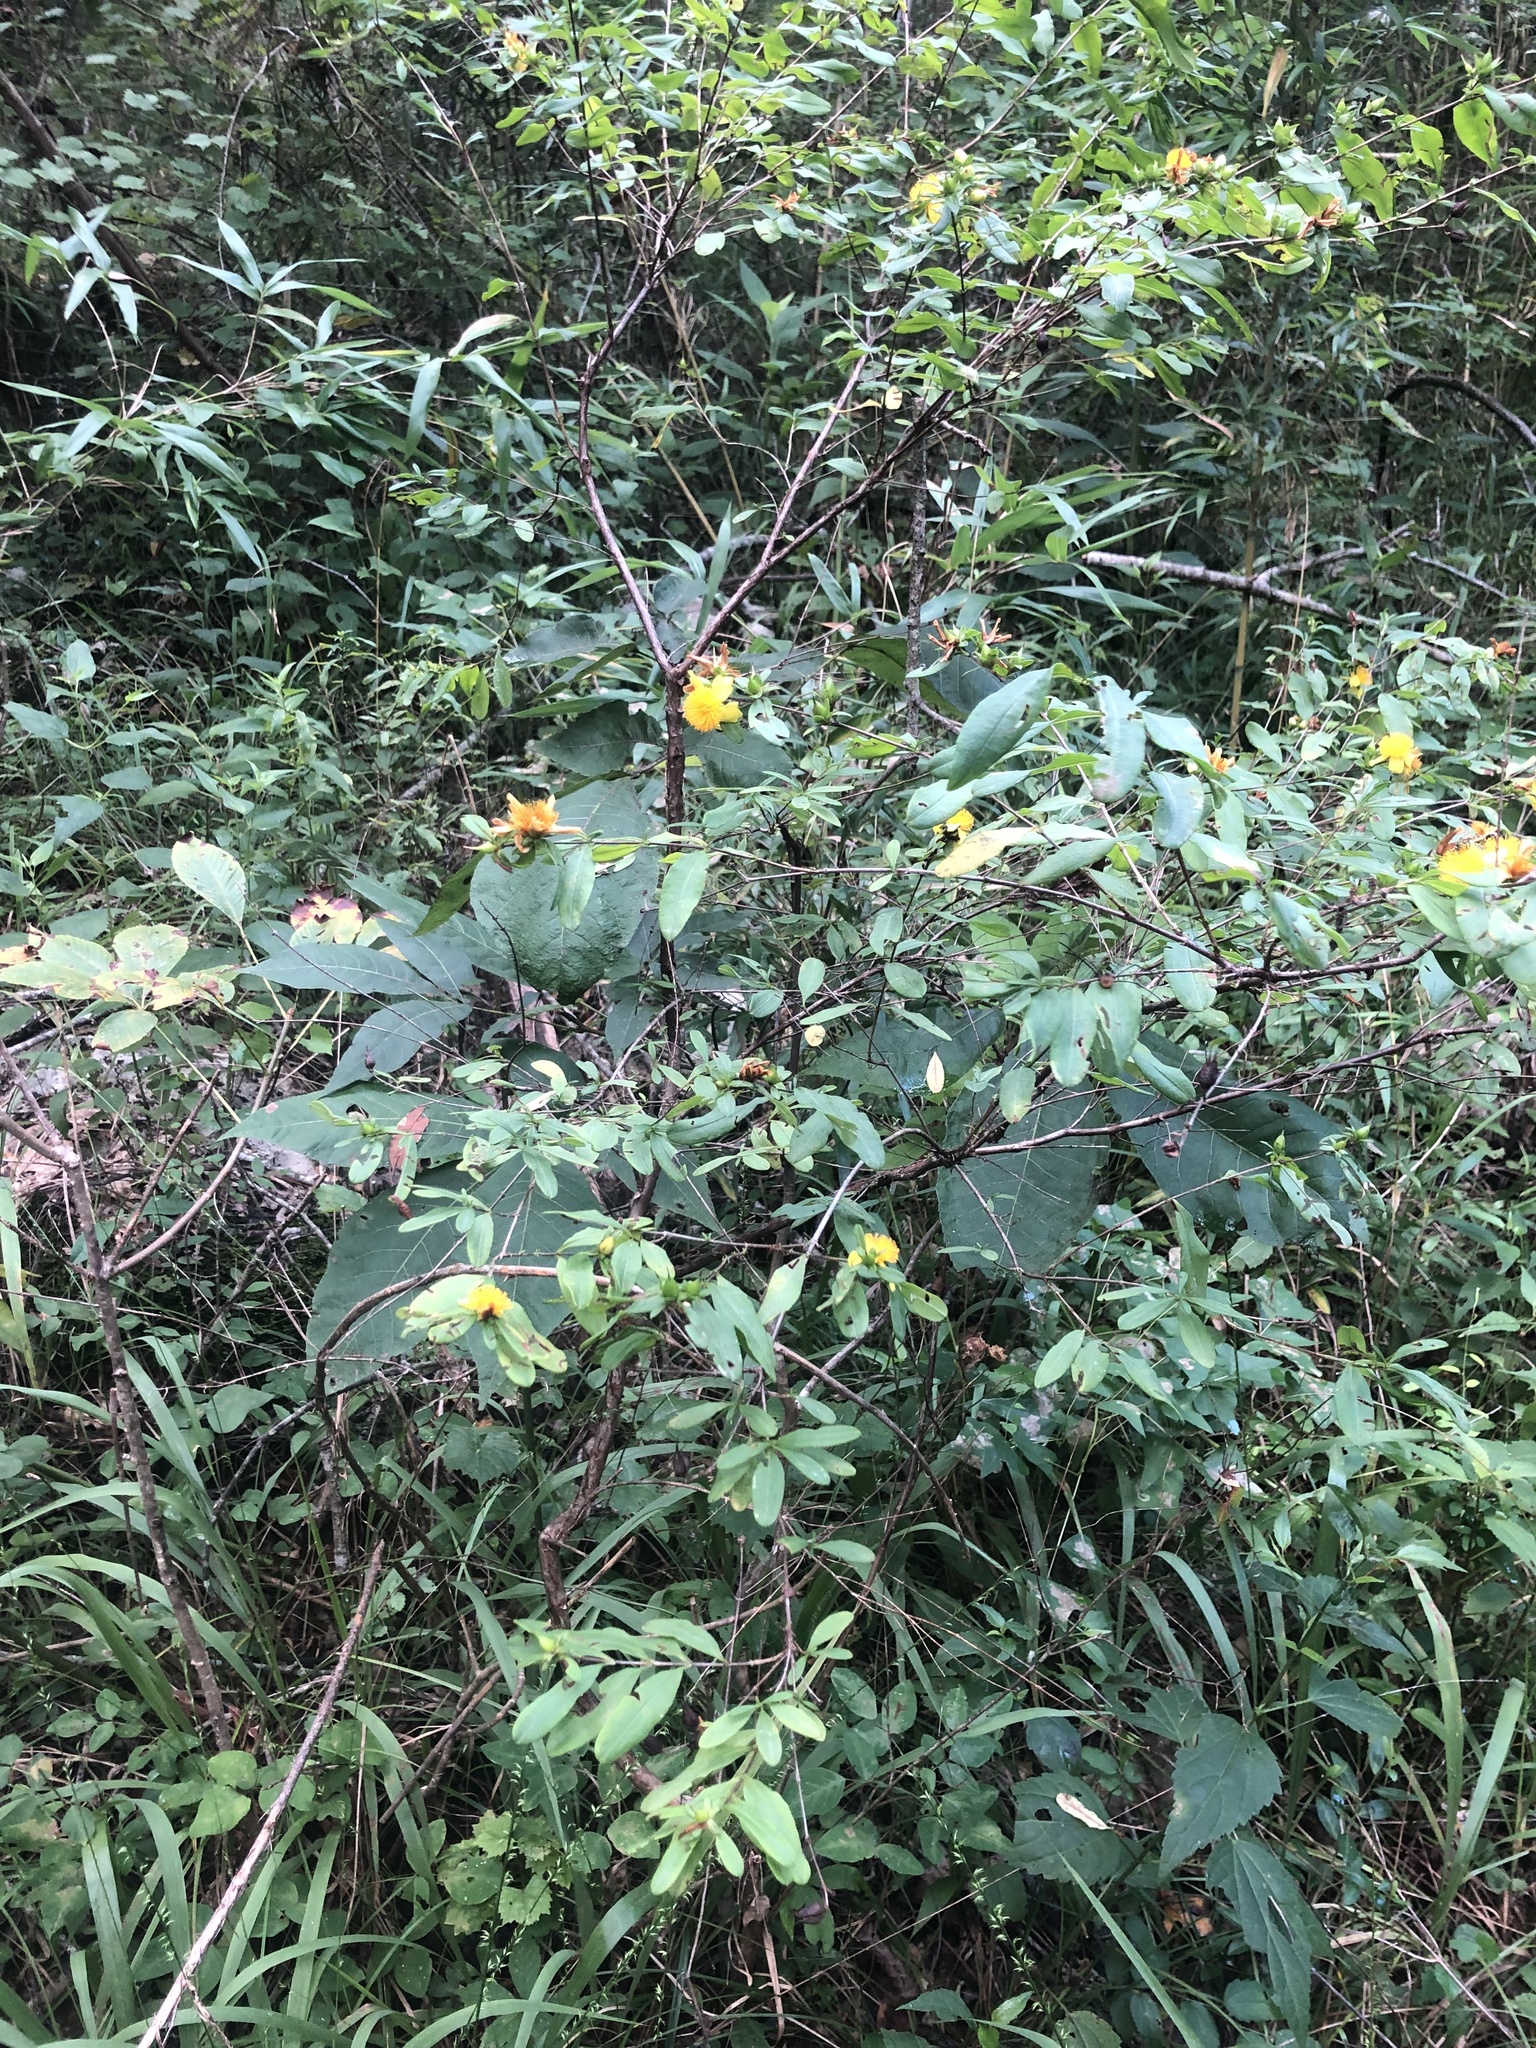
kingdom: Plantae
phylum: Tracheophyta
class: Magnoliopsida
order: Malpighiales
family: Hypericaceae
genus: Hypericum
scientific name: Hypericum frondosum
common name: Golden st. john's-wort
